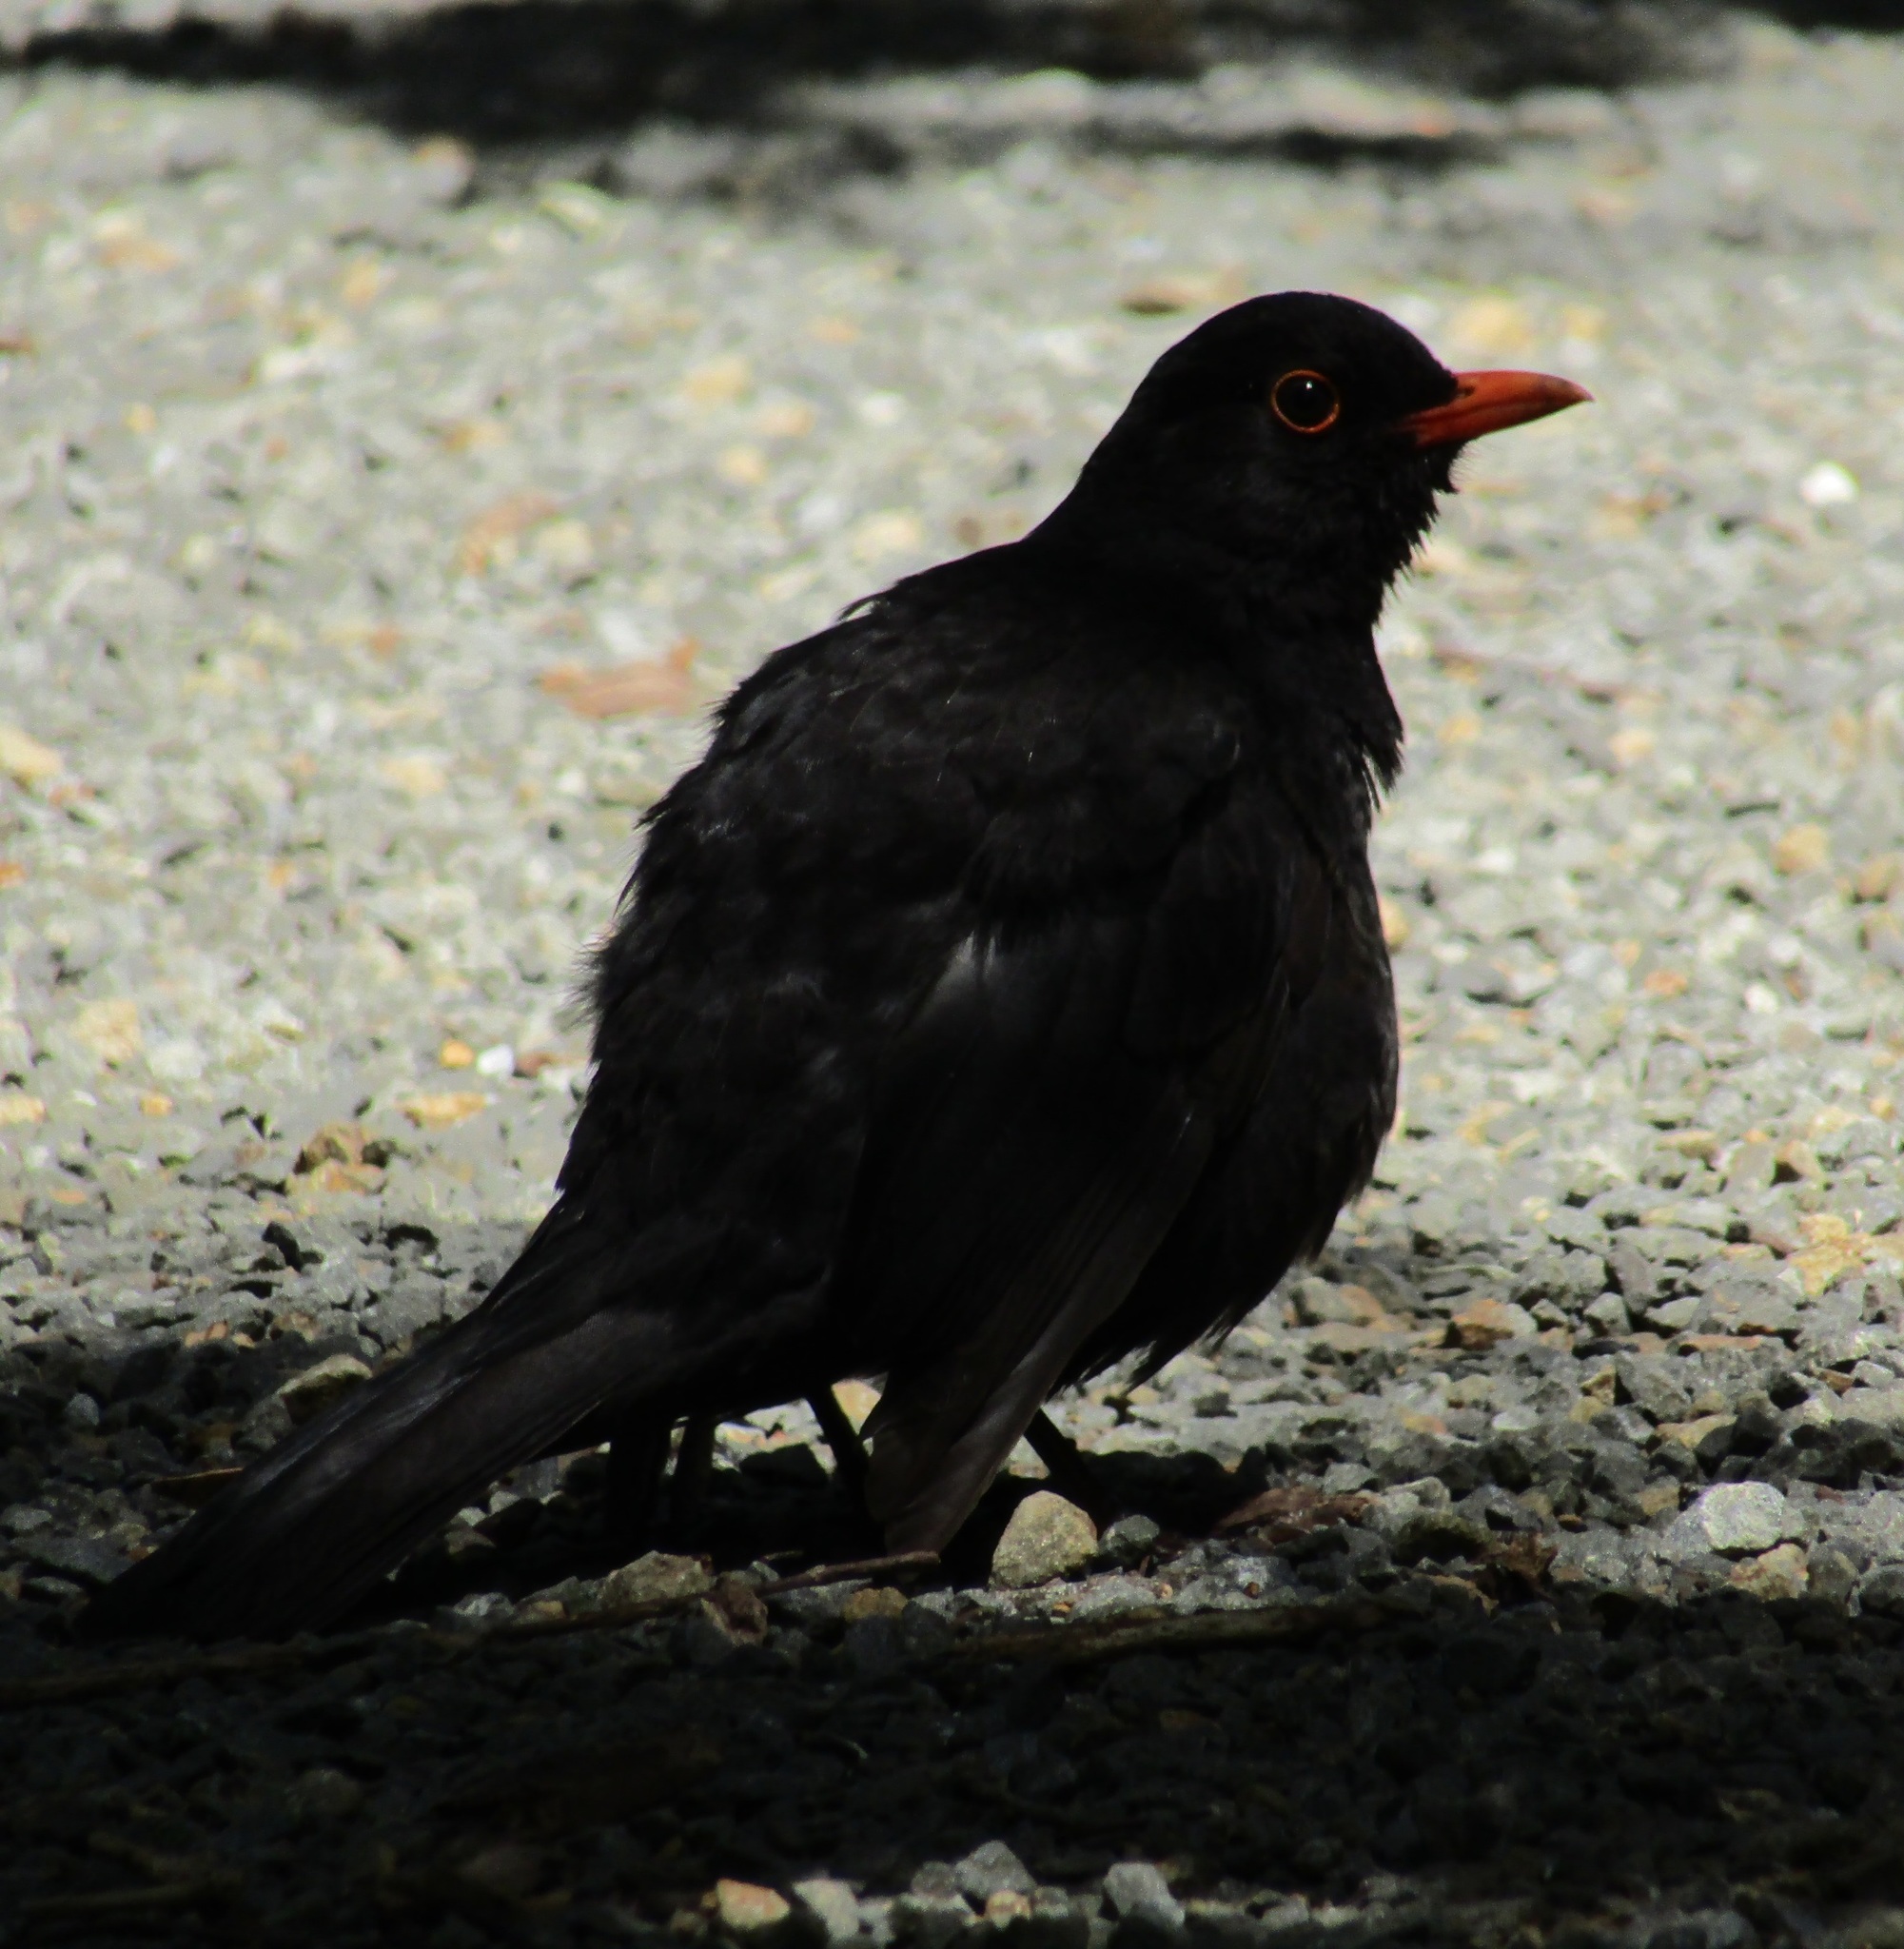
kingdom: Animalia
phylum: Chordata
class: Aves
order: Passeriformes
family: Turdidae
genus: Turdus
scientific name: Turdus merula
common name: Common blackbird
